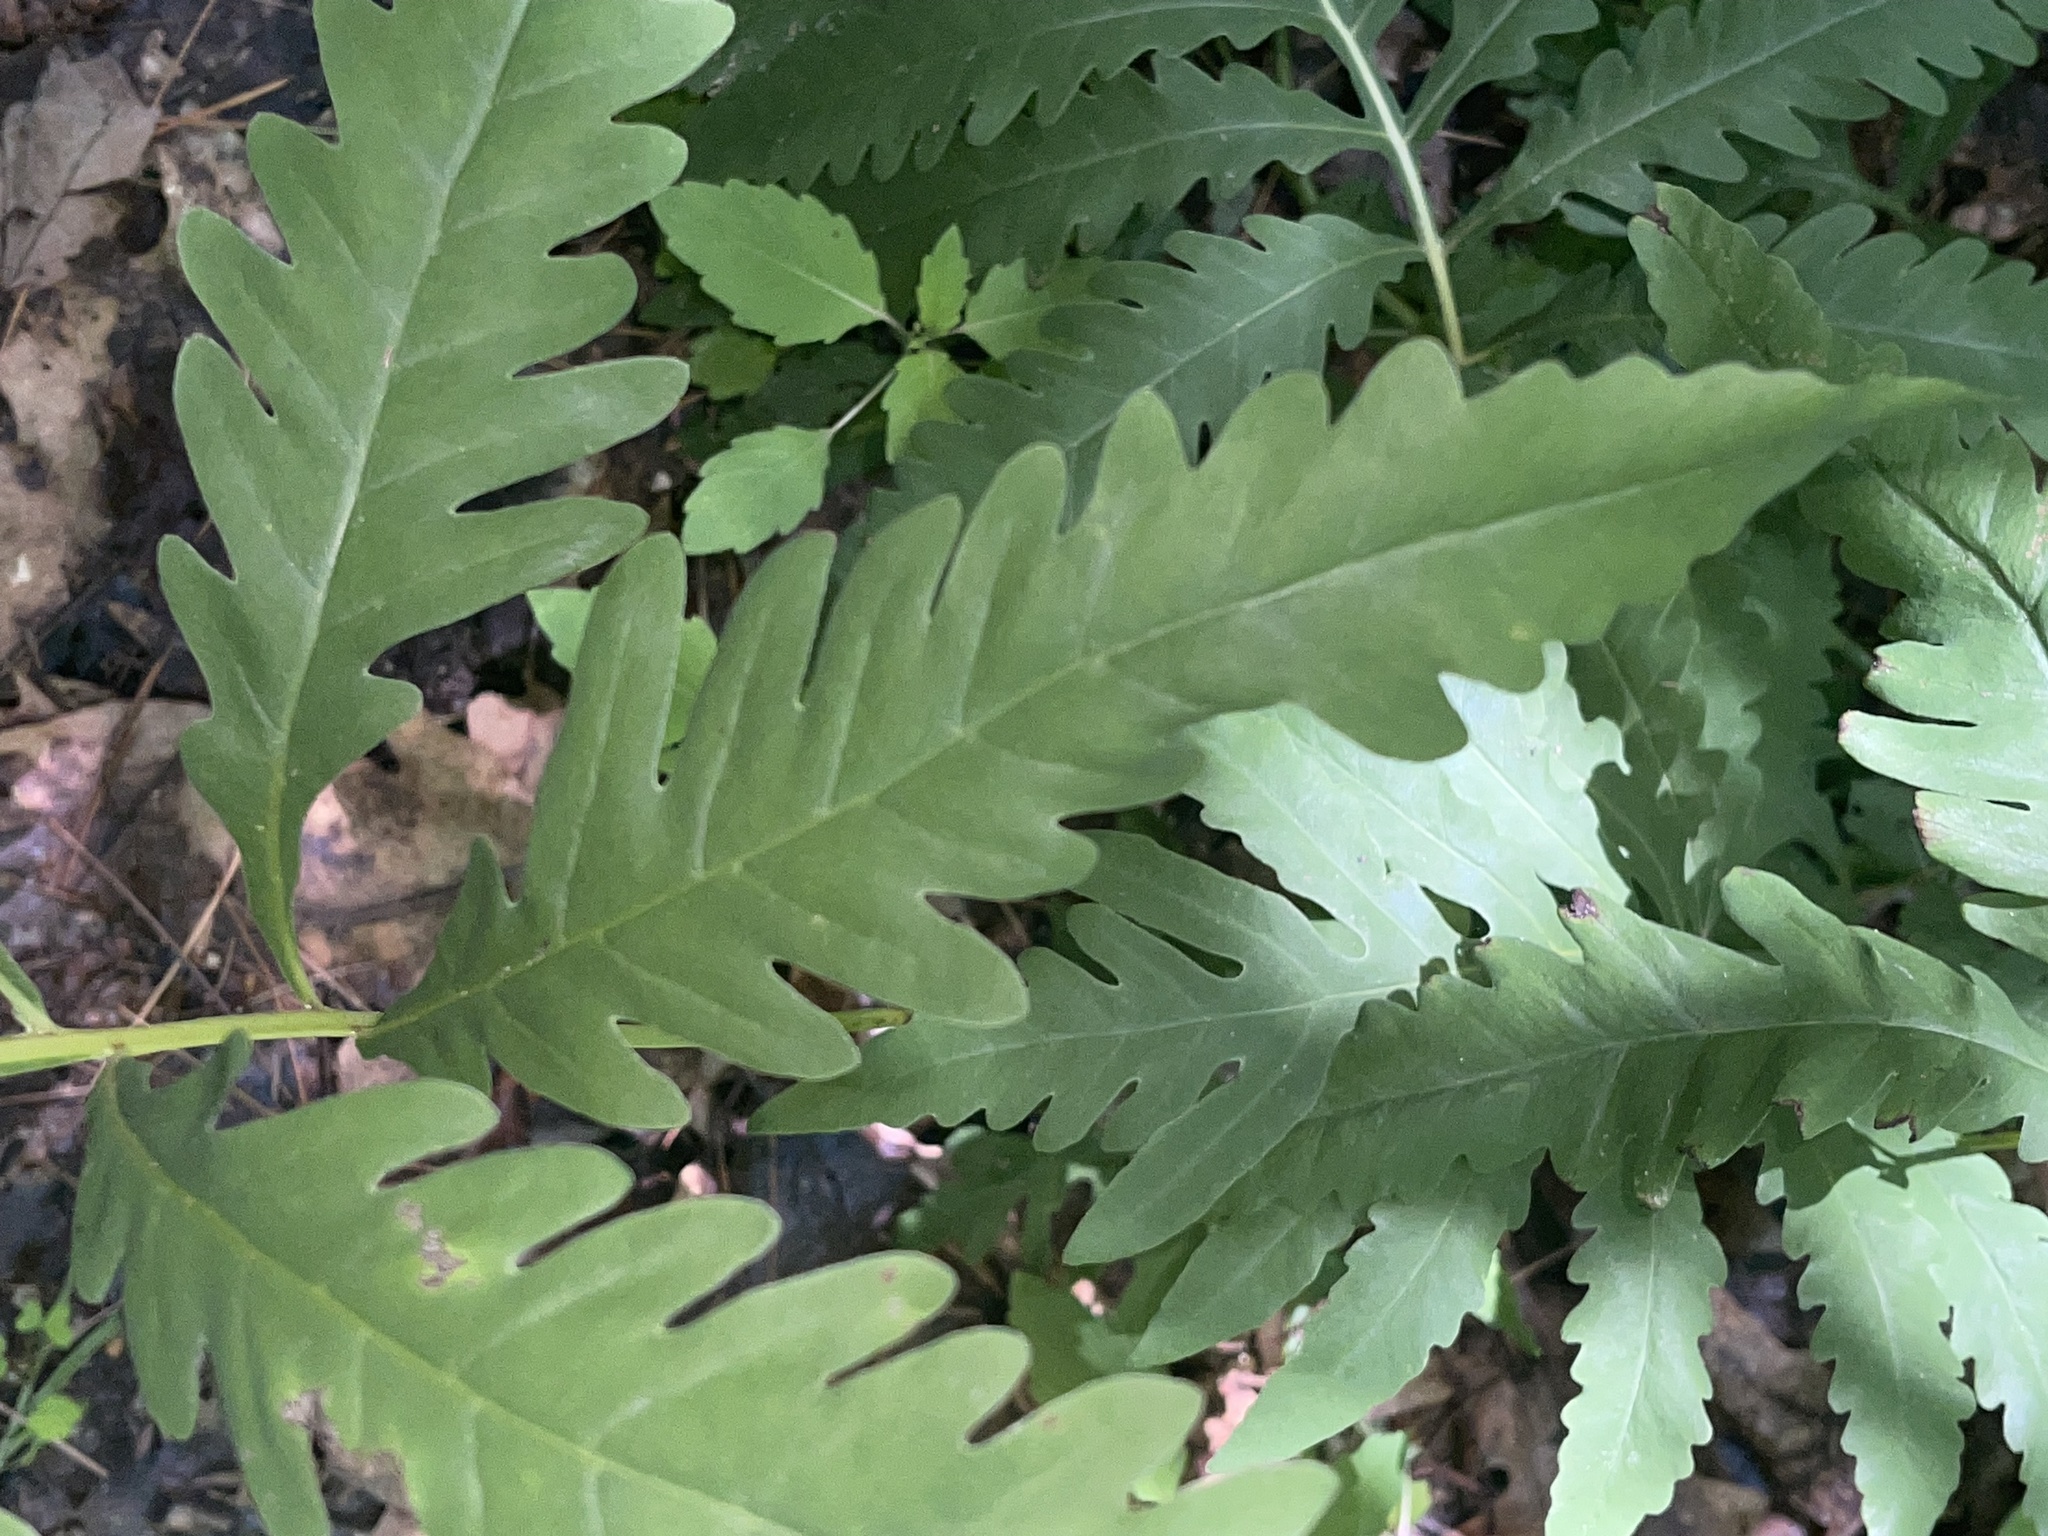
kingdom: Plantae
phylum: Tracheophyta
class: Polypodiopsida
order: Polypodiales
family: Onocleaceae
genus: Onoclea
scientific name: Onoclea sensibilis
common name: Sensitive fern
